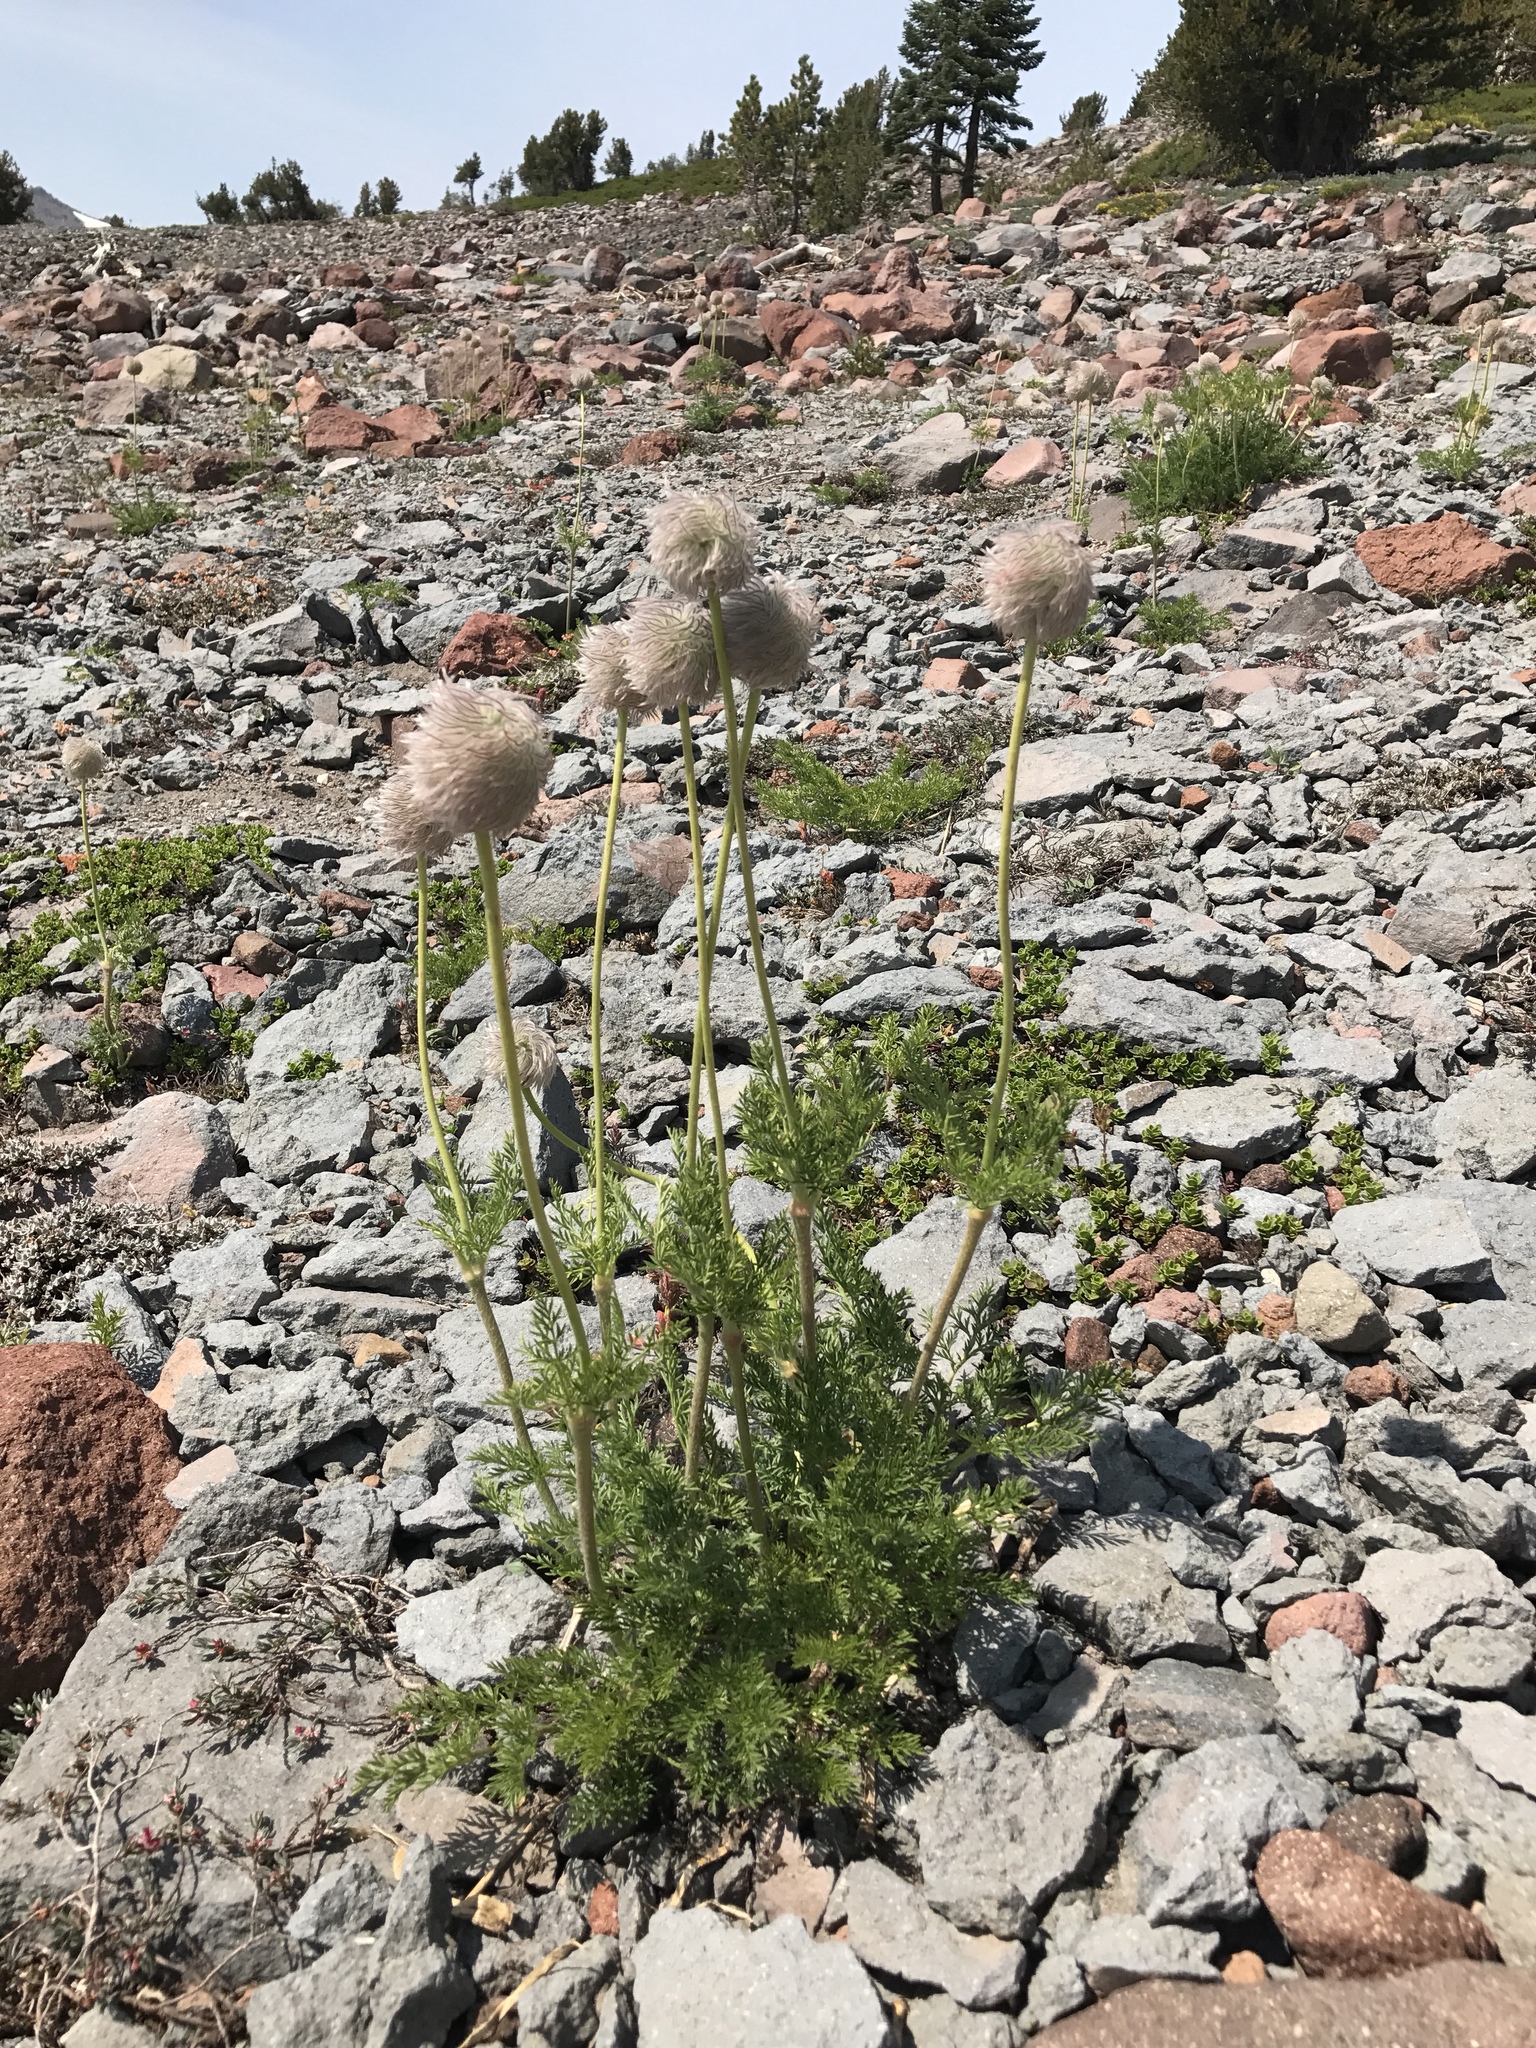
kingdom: Plantae
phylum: Tracheophyta
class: Magnoliopsida
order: Ranunculales
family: Ranunculaceae
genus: Pulsatilla
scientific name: Pulsatilla occidentalis
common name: Mountain pasqueflower
